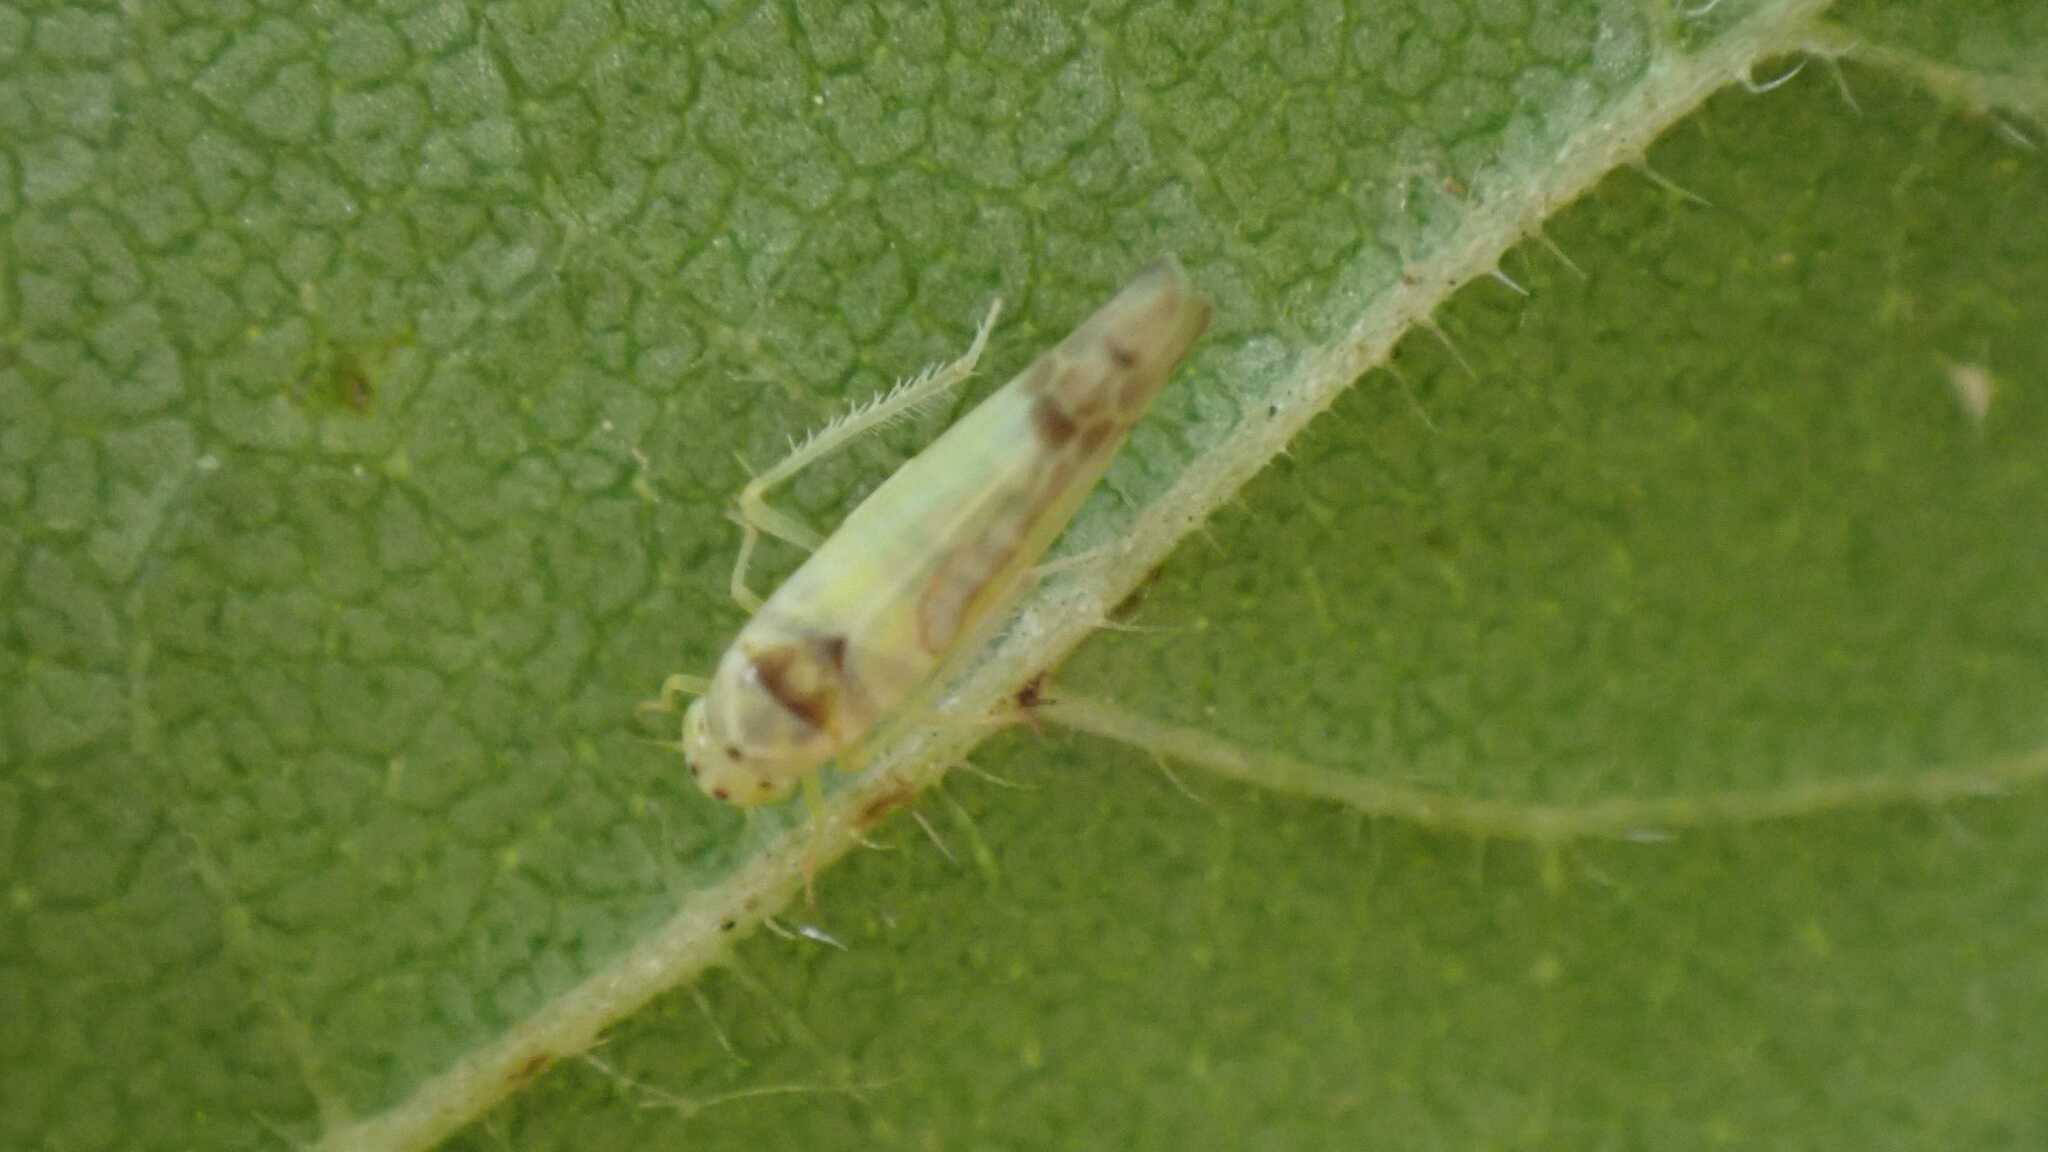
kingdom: Animalia
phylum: Arthropoda
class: Insecta
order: Hemiptera
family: Cicadellidae
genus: Ribautiana
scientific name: Ribautiana ulmi
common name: European elm leafhopper
